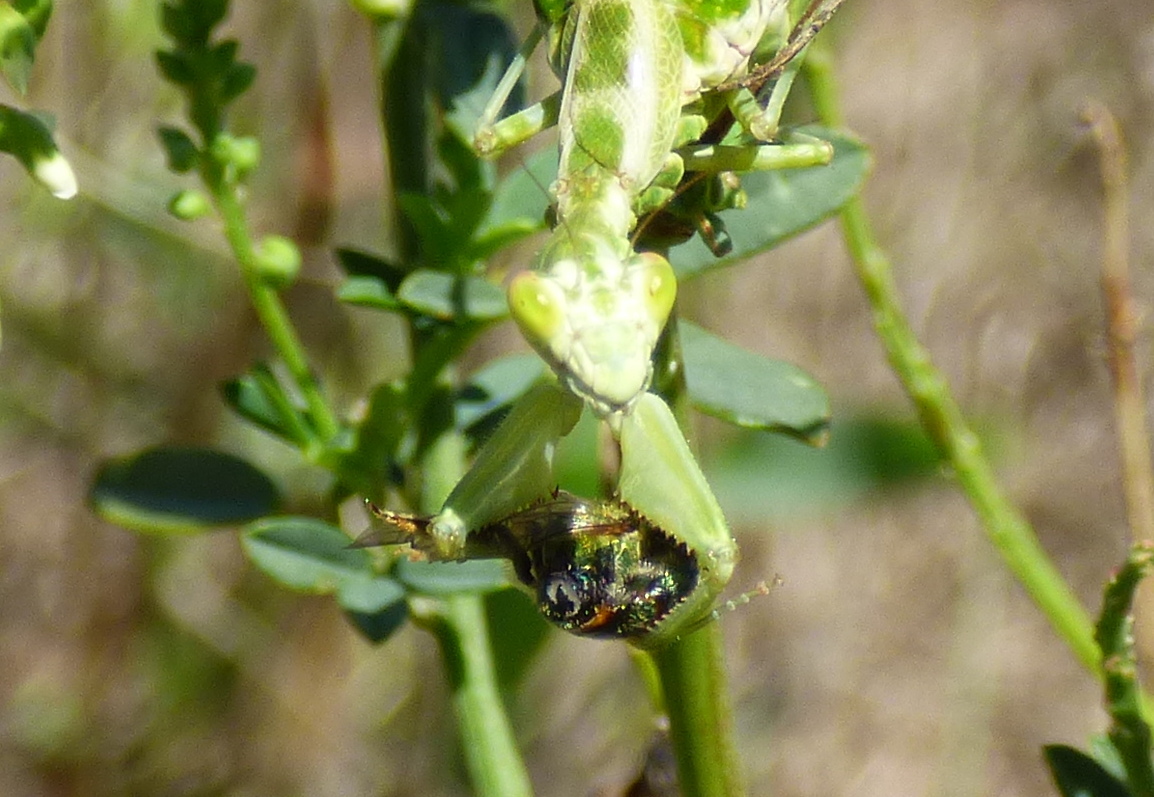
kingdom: Animalia
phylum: Arthropoda
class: Insecta
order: Mantodea
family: Acanthopidae
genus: Acontista
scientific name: Acontista
